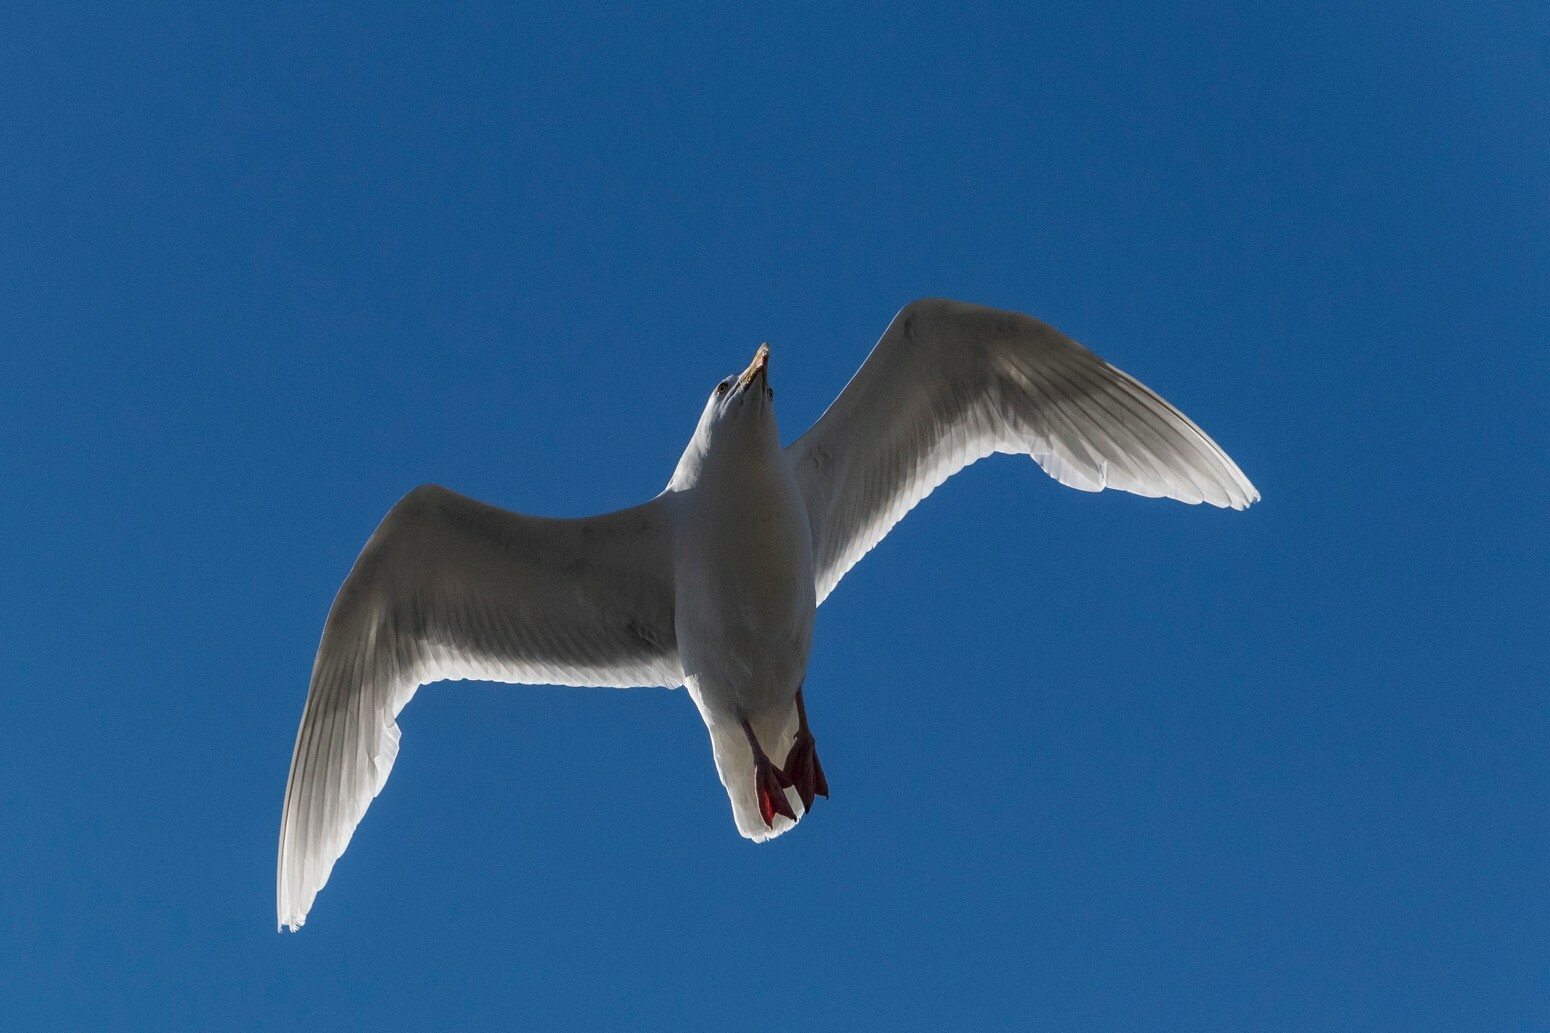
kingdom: Animalia
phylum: Chordata
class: Aves
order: Charadriiformes
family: Laridae
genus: Larus
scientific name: Larus hyperboreus
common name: Glaucous gull
